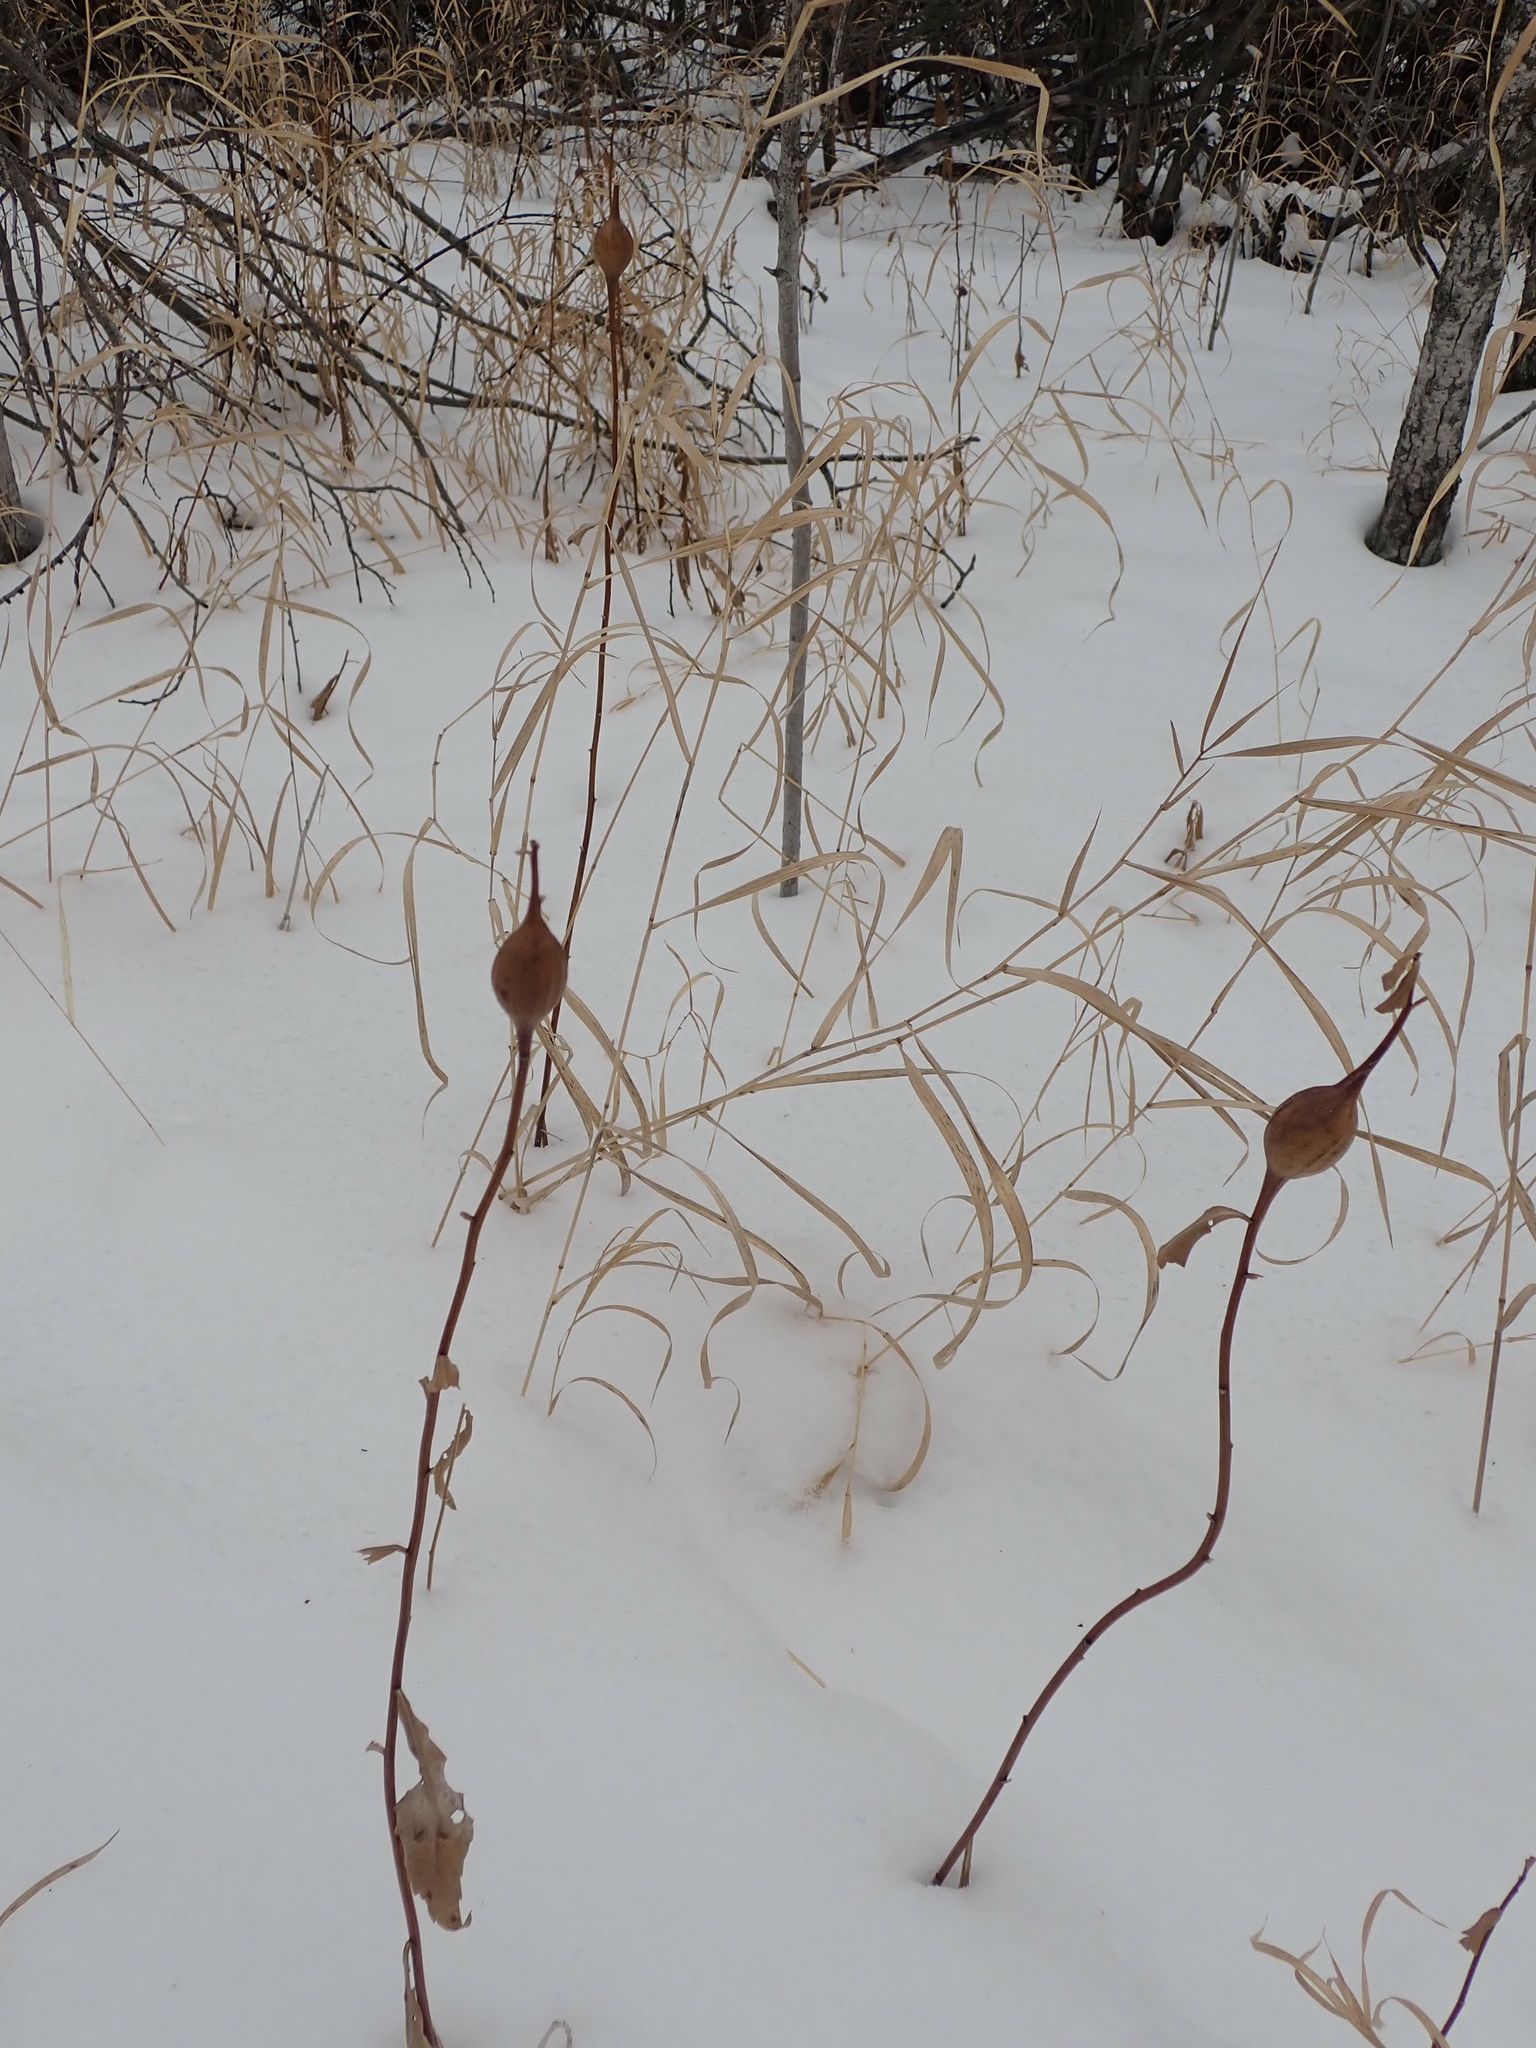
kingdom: Animalia
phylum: Arthropoda
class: Insecta
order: Diptera
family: Tephritidae
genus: Eurosta
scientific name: Eurosta solidaginis
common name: Goldenrod gall fly
